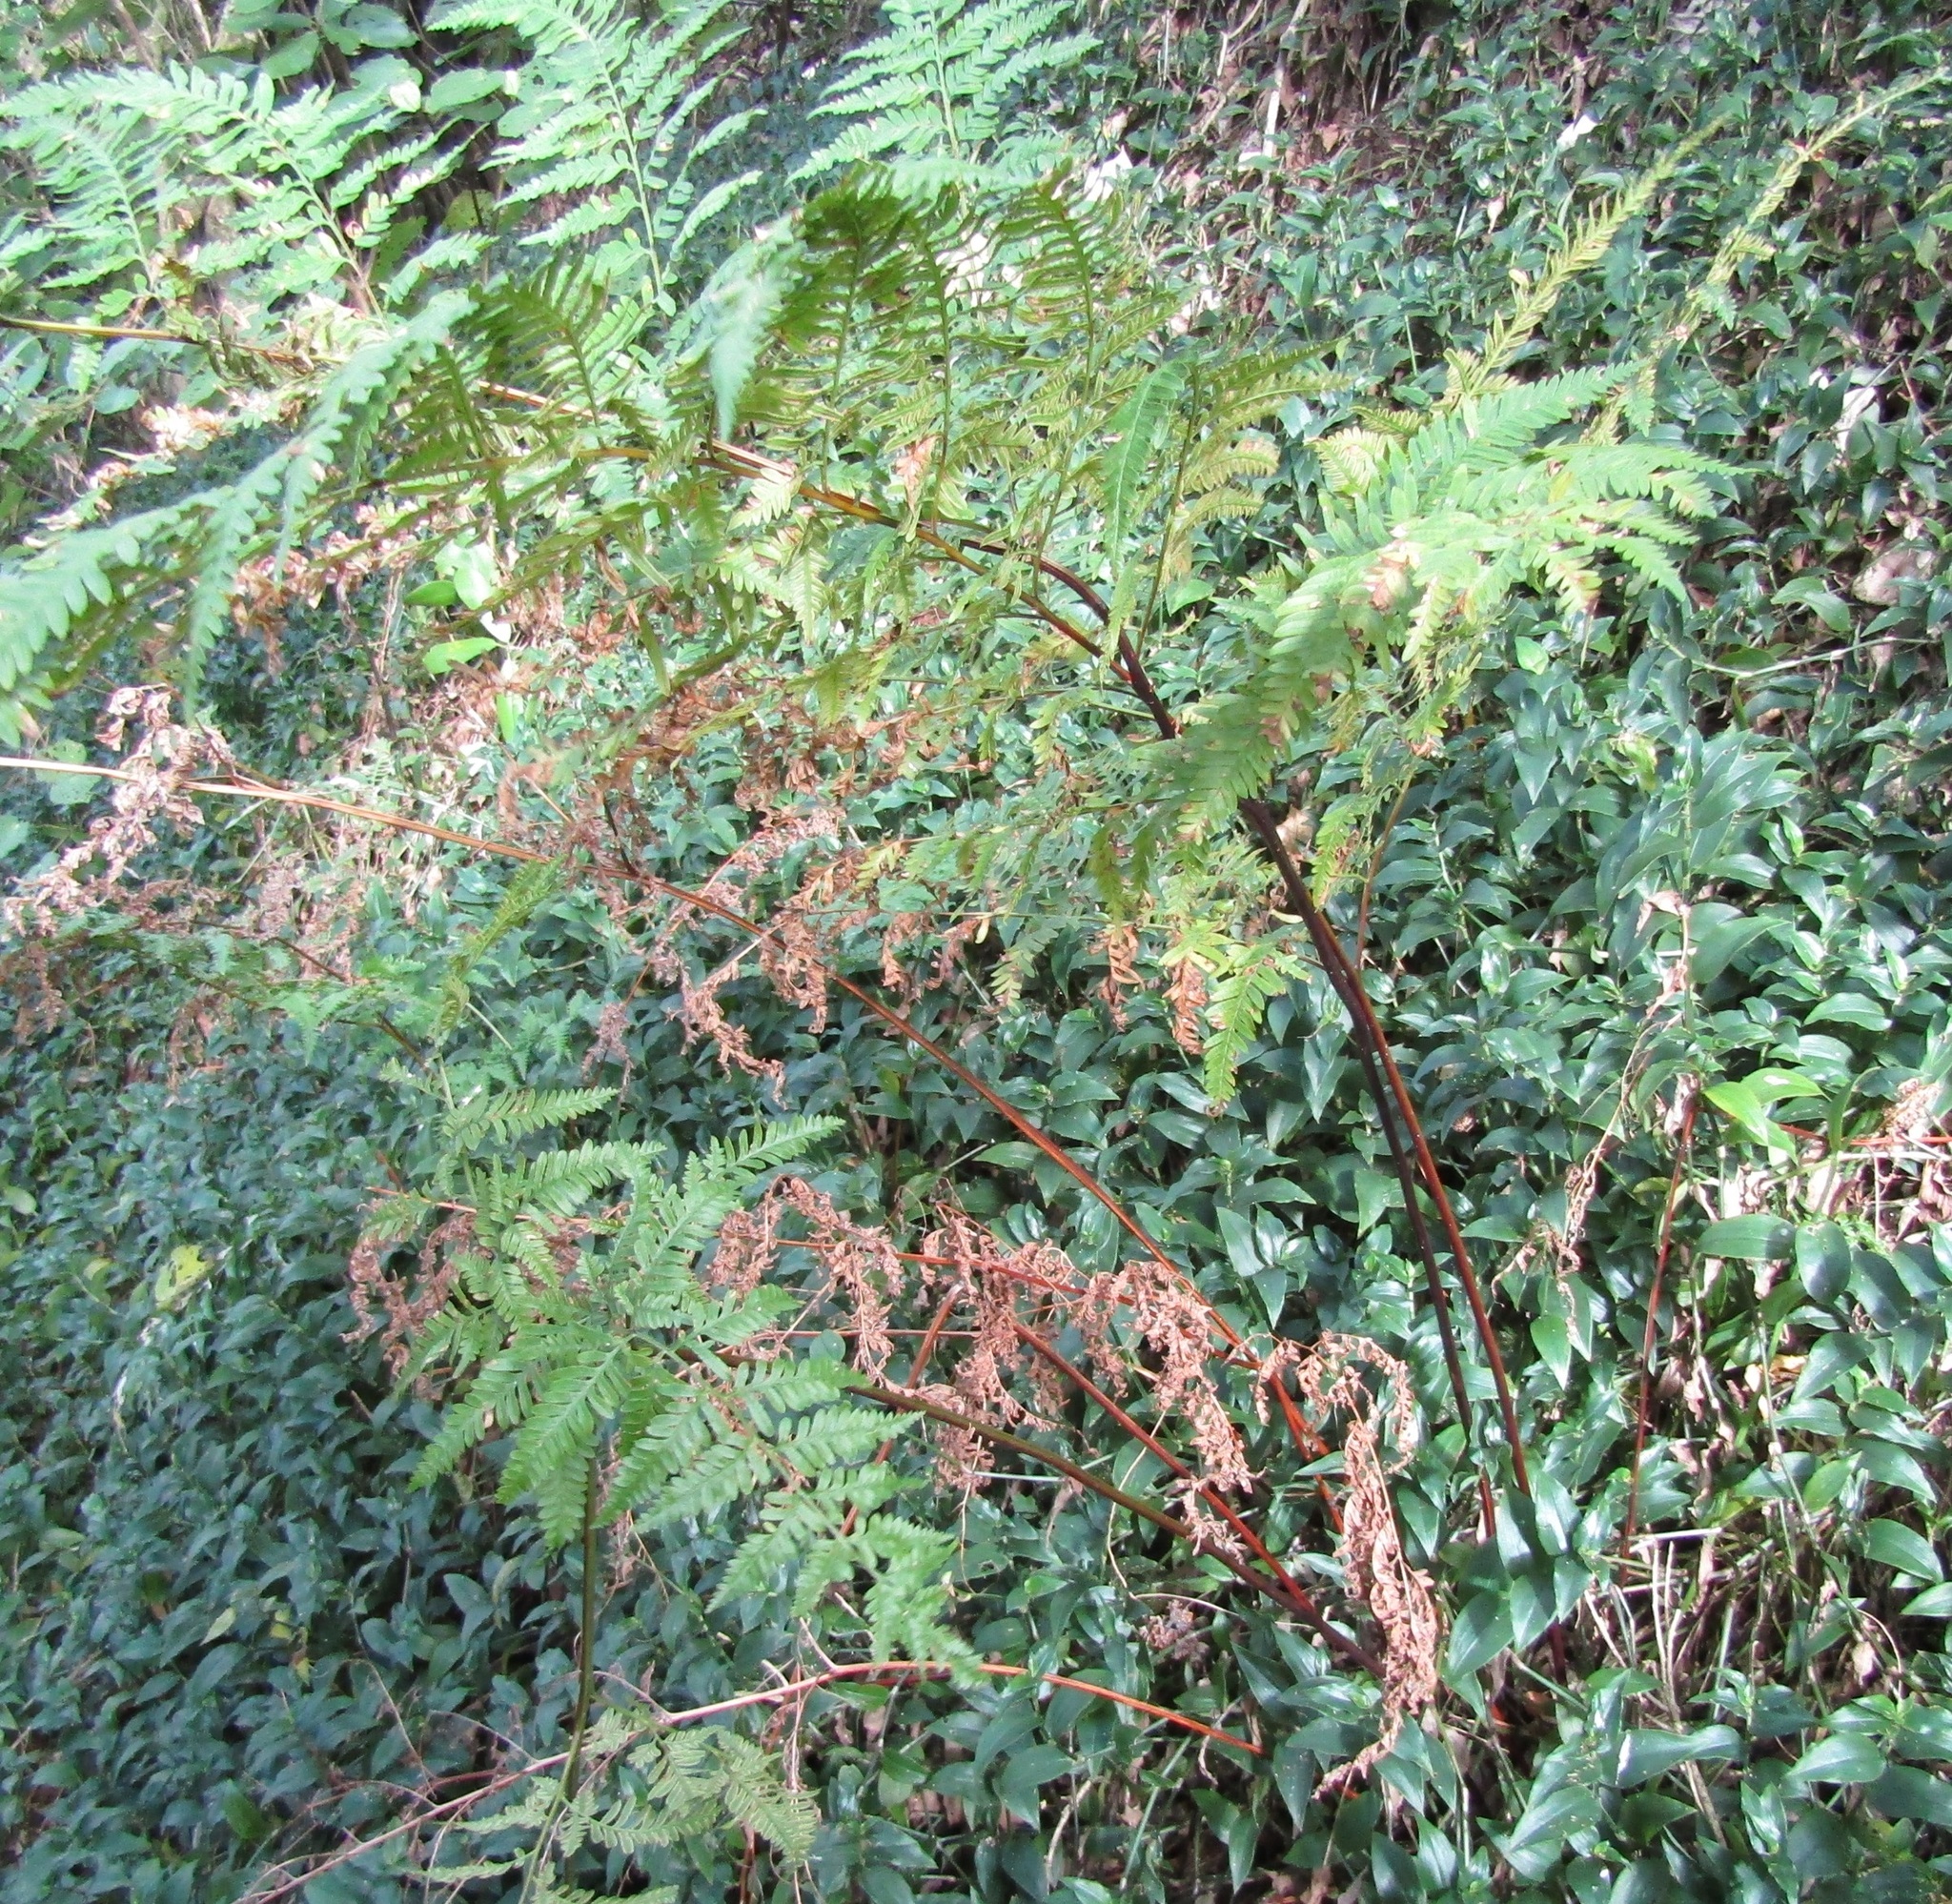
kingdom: Plantae
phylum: Tracheophyta
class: Polypodiopsida
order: Polypodiales
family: Pteridaceae
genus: Pteris
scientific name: Pteris tremula
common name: Australian brake
